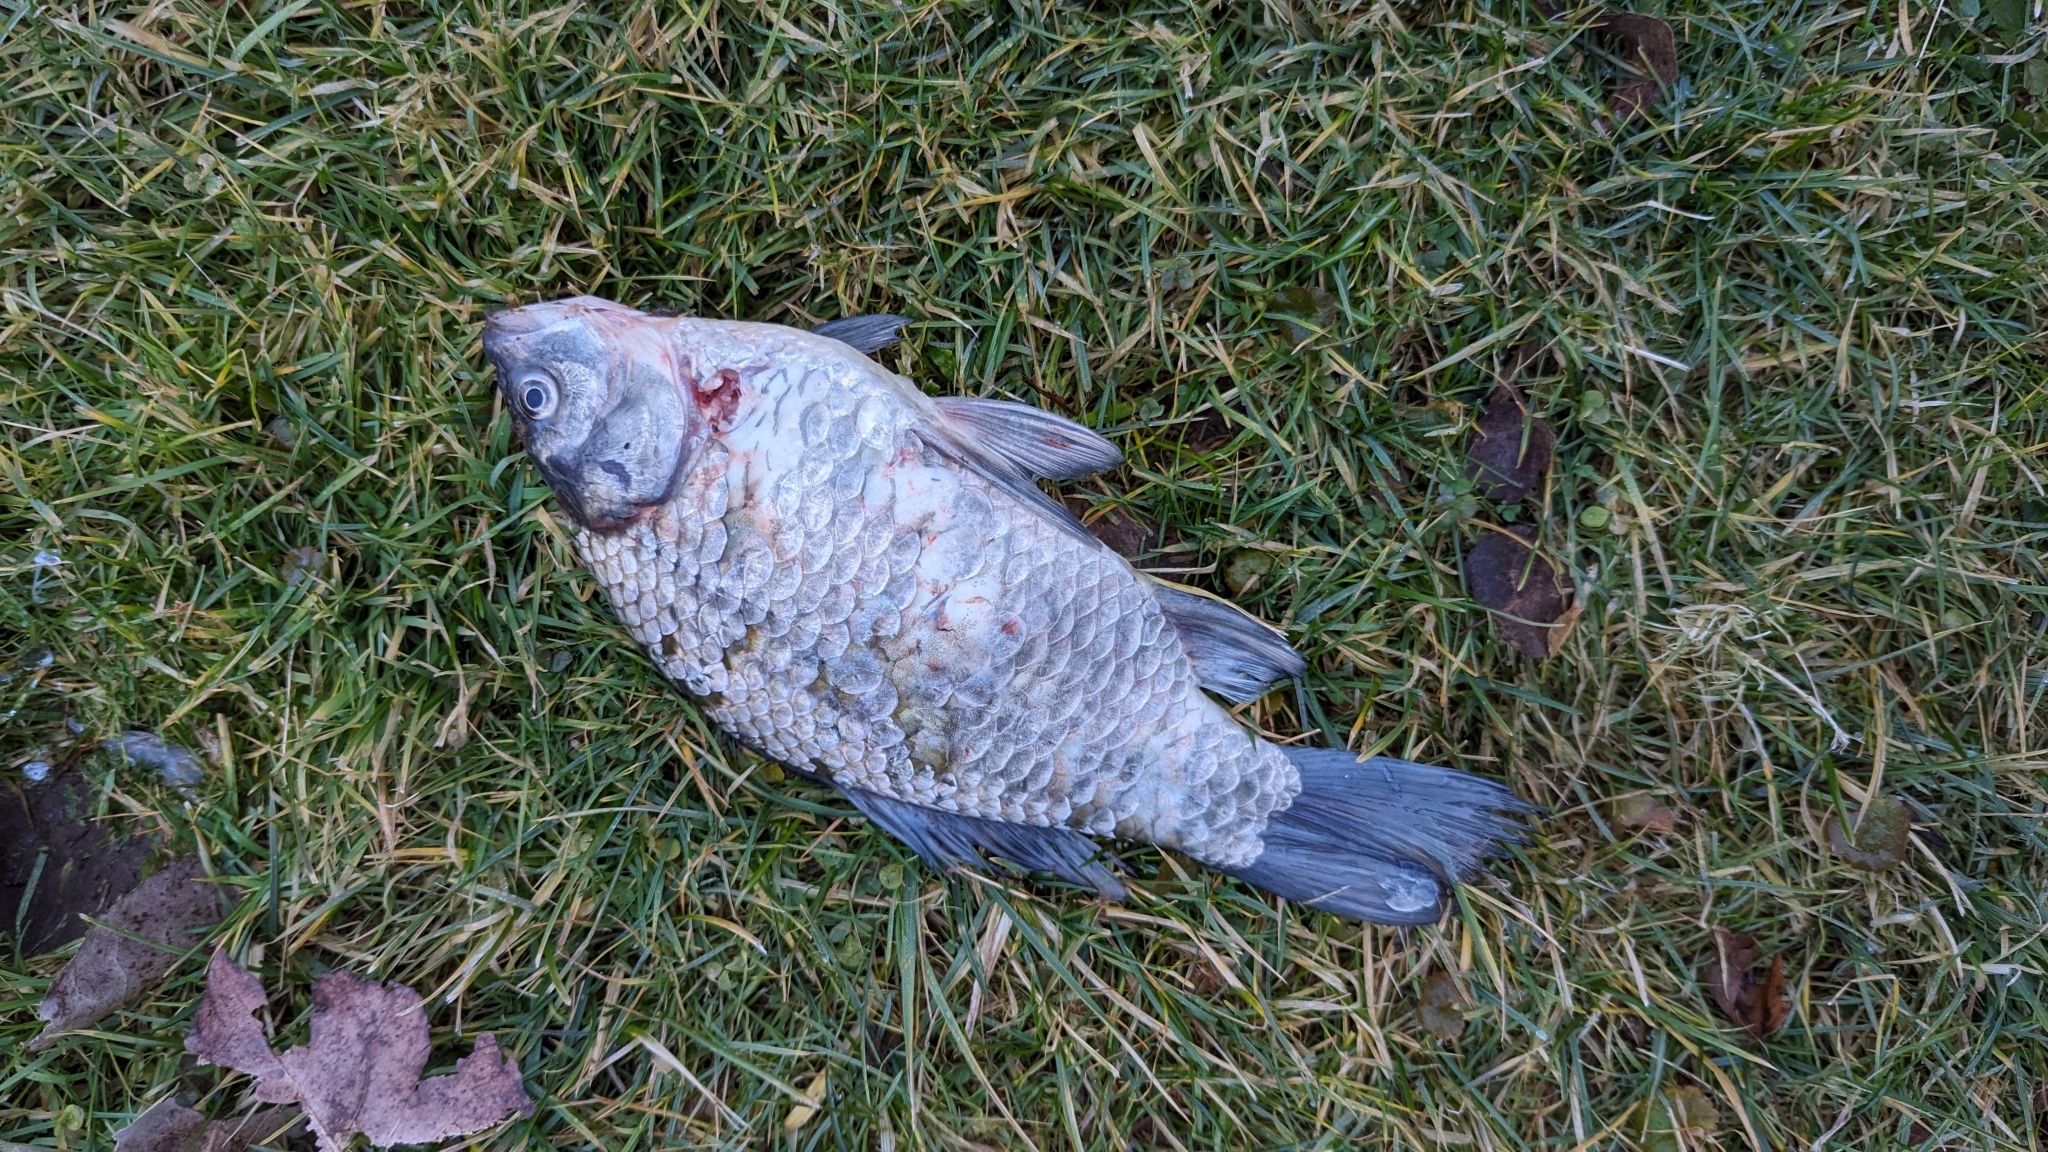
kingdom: Animalia
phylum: Chordata
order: Cypriniformes
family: Cyprinidae
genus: Carassius
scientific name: Carassius auratus
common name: Goldfish
